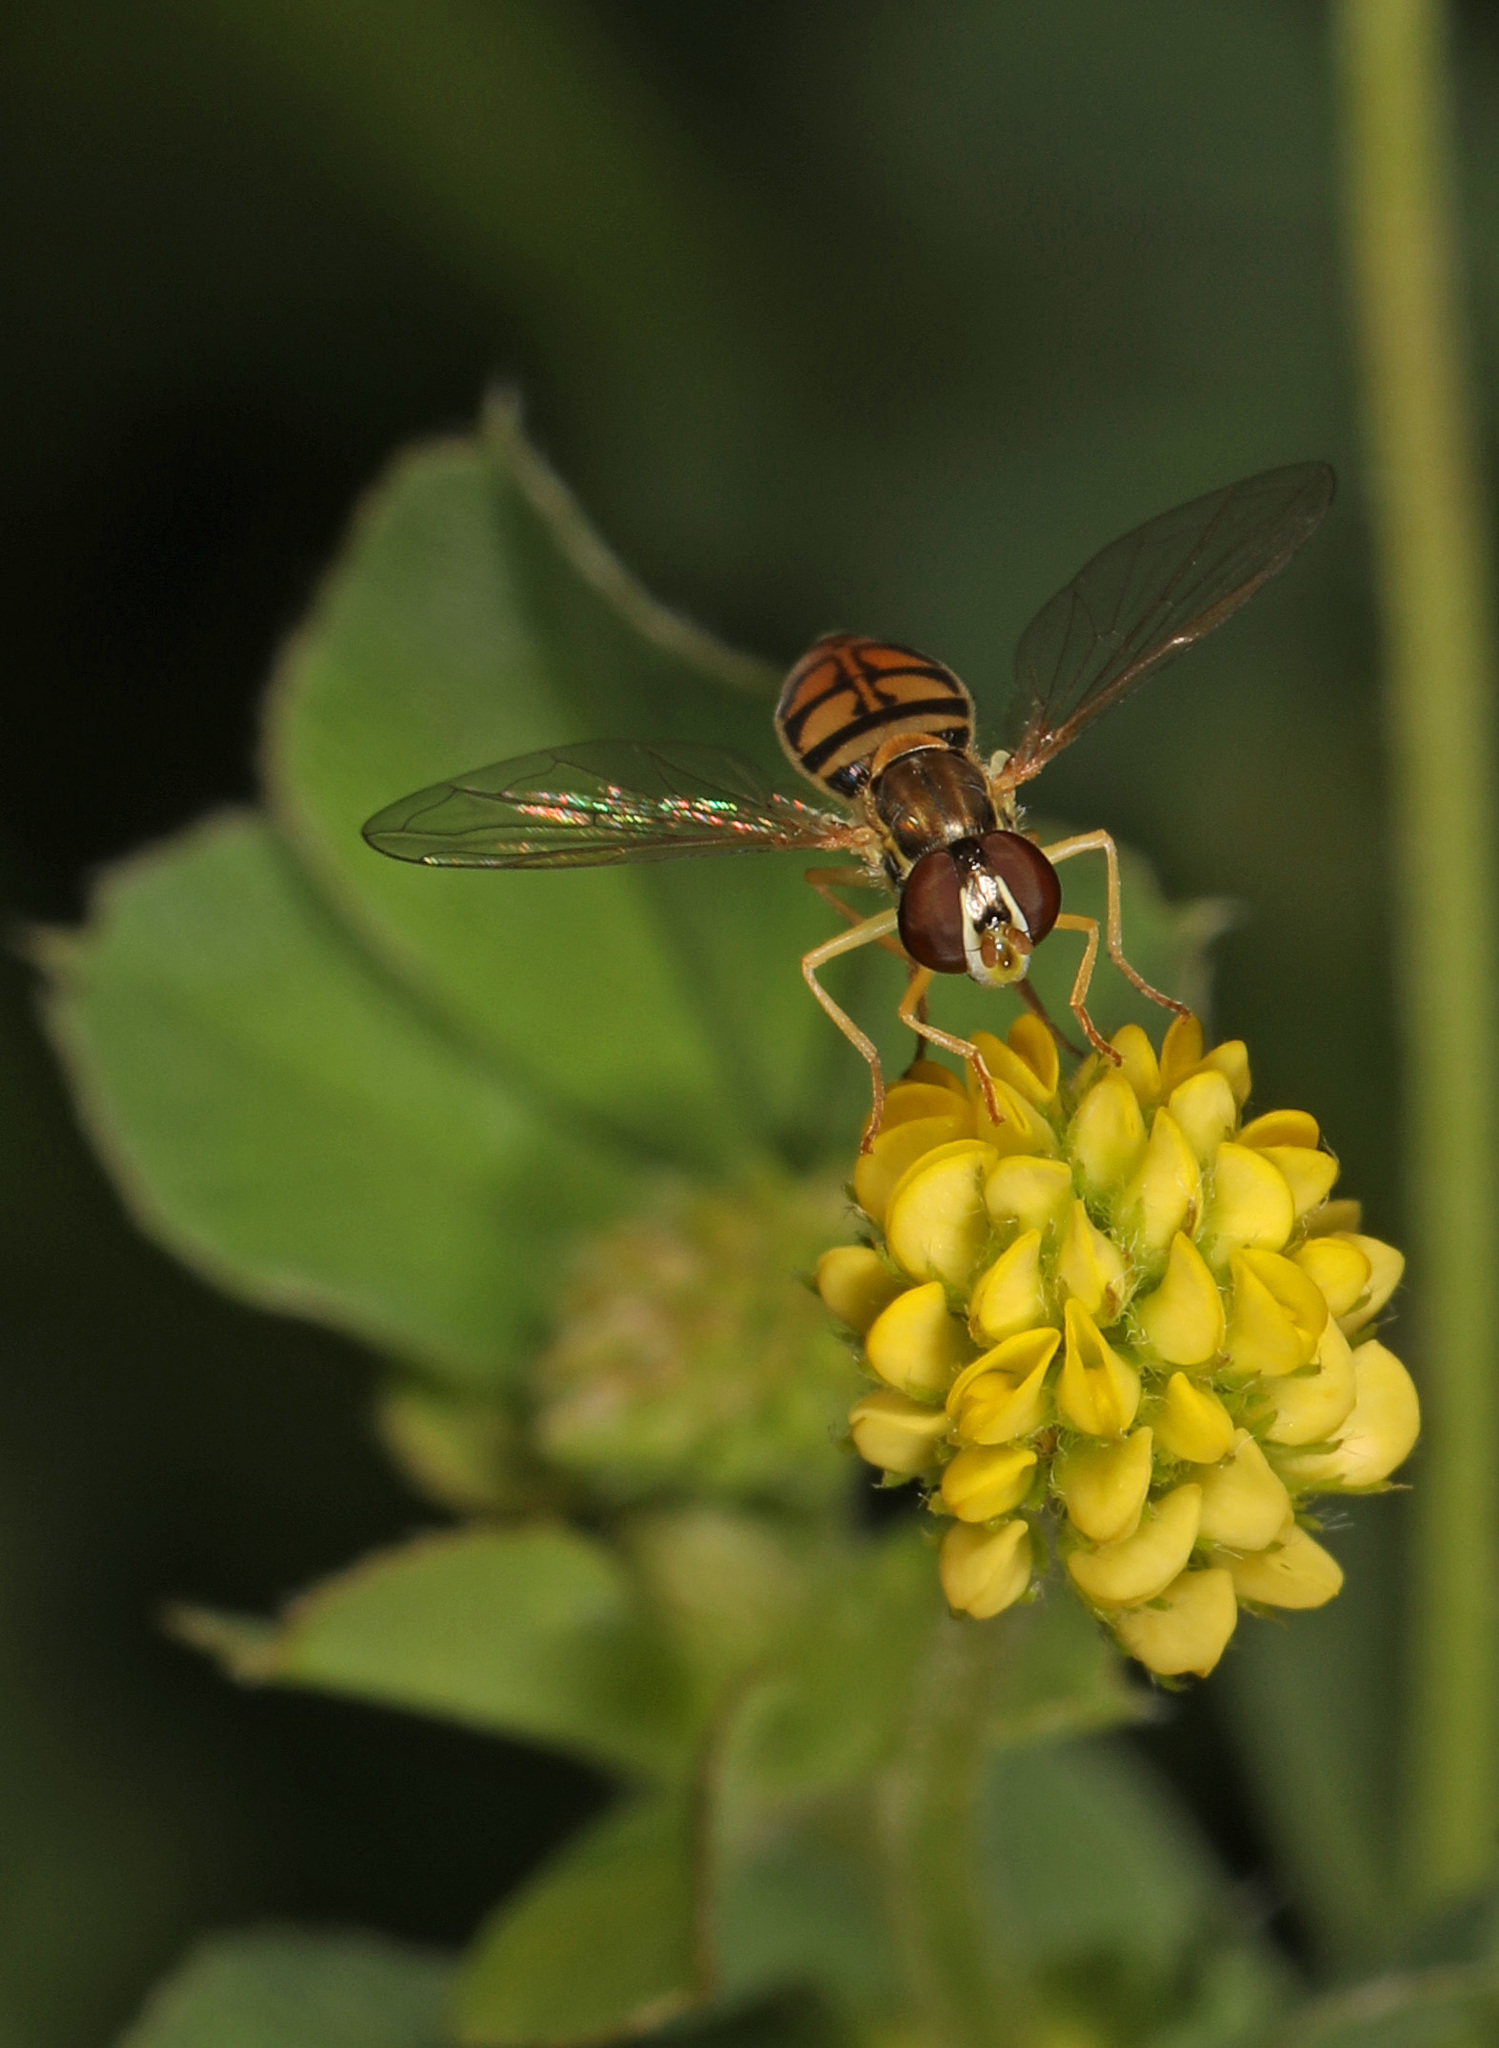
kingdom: Animalia
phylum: Arthropoda
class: Insecta
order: Diptera
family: Syrphidae
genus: Toxomerus
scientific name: Toxomerus marginatus
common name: Syrphid fly
